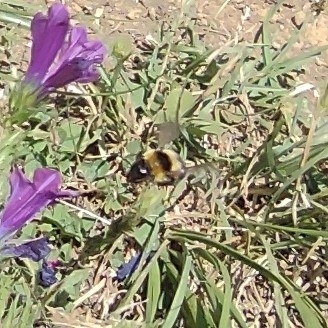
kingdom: Animalia
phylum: Arthropoda
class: Insecta
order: Hymenoptera
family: Apidae
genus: Bombus
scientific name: Bombus ruderatus
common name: Large garden bumblebee
